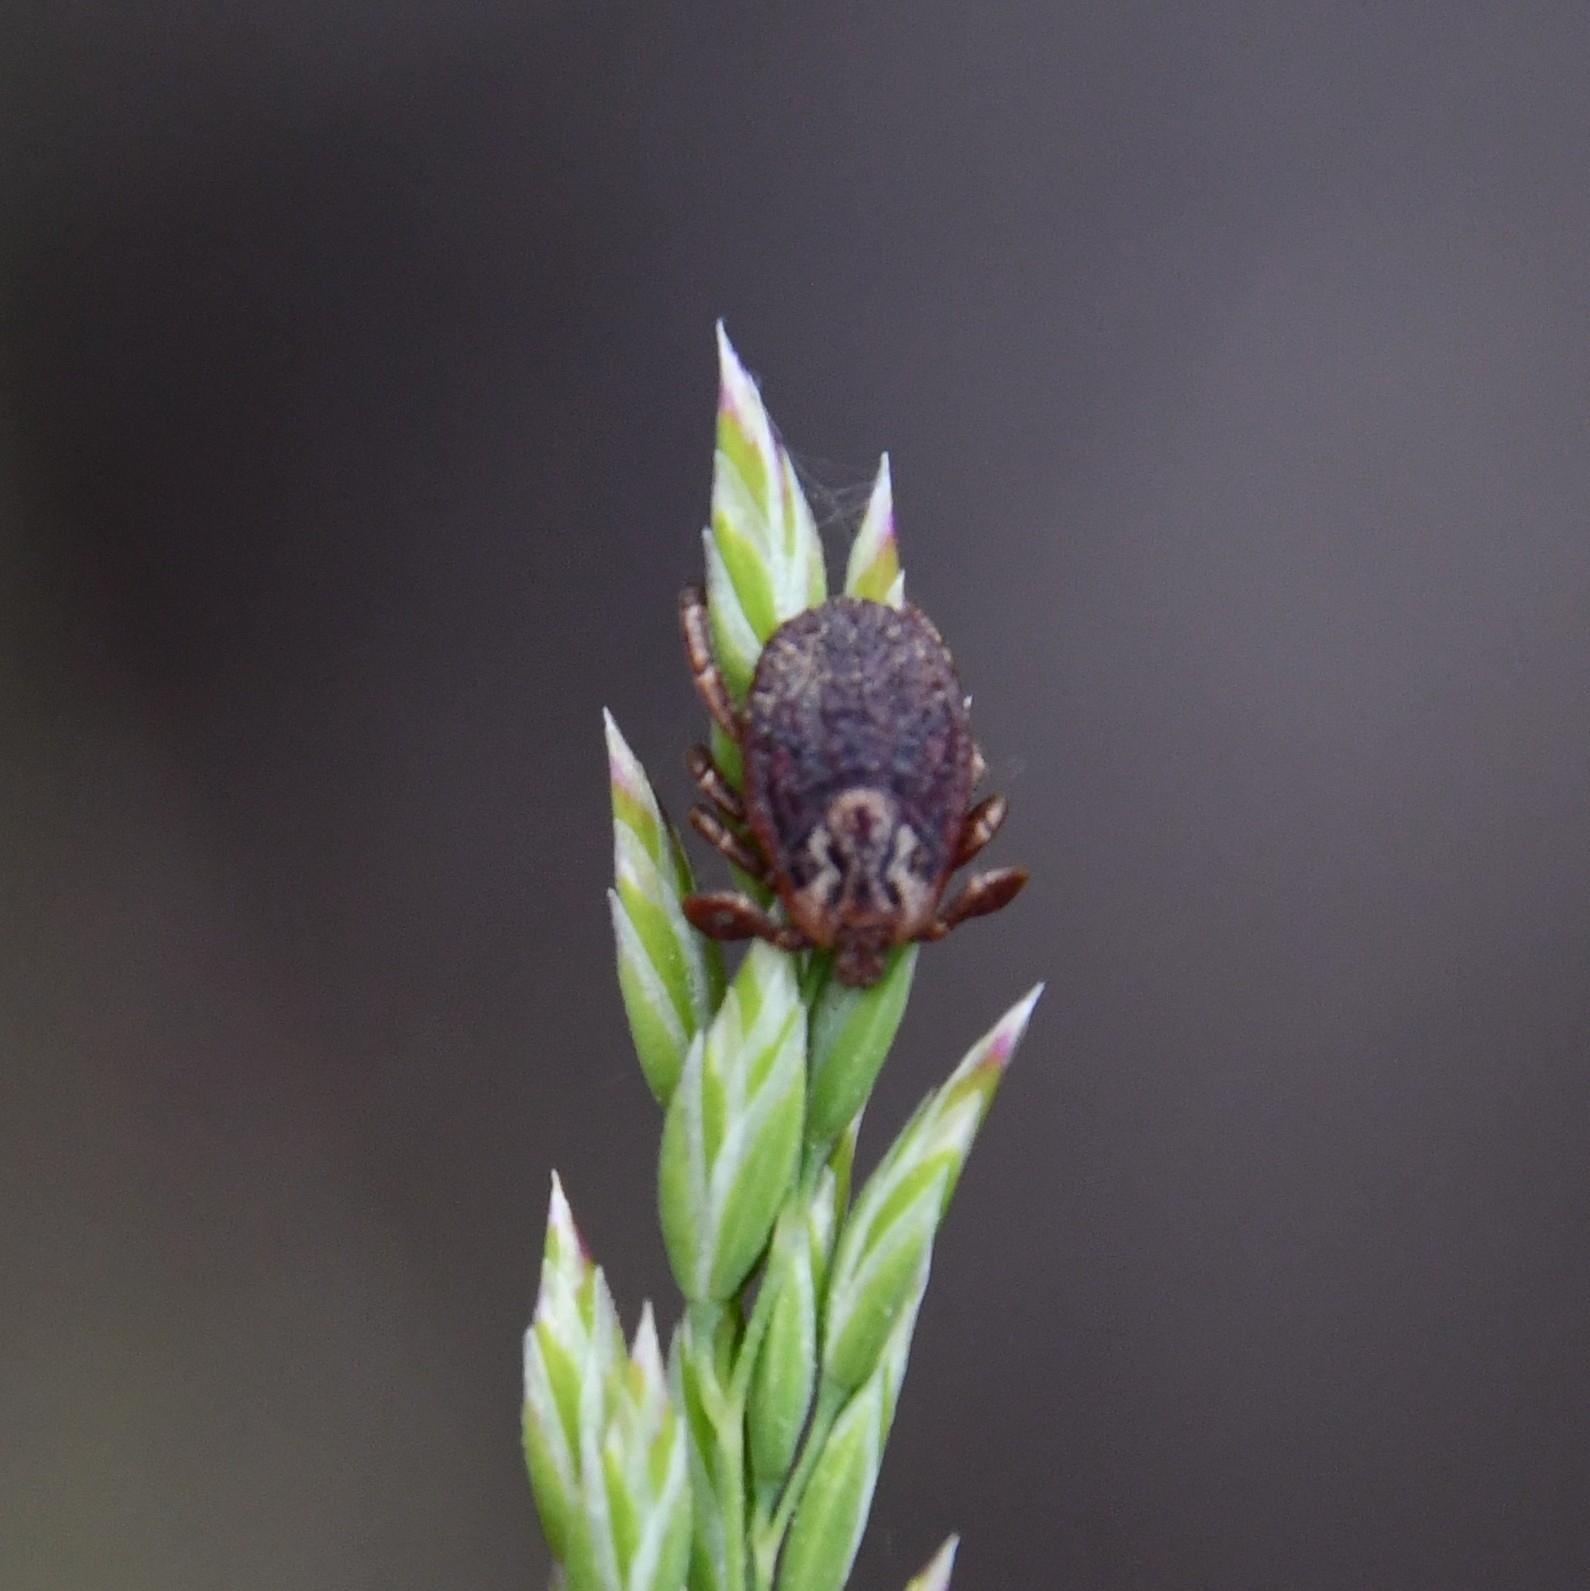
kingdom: Animalia
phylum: Arthropoda
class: Arachnida
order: Ixodida
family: Ixodidae
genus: Dermacentor
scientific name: Dermacentor marginatus
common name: Ornate sheep tick
